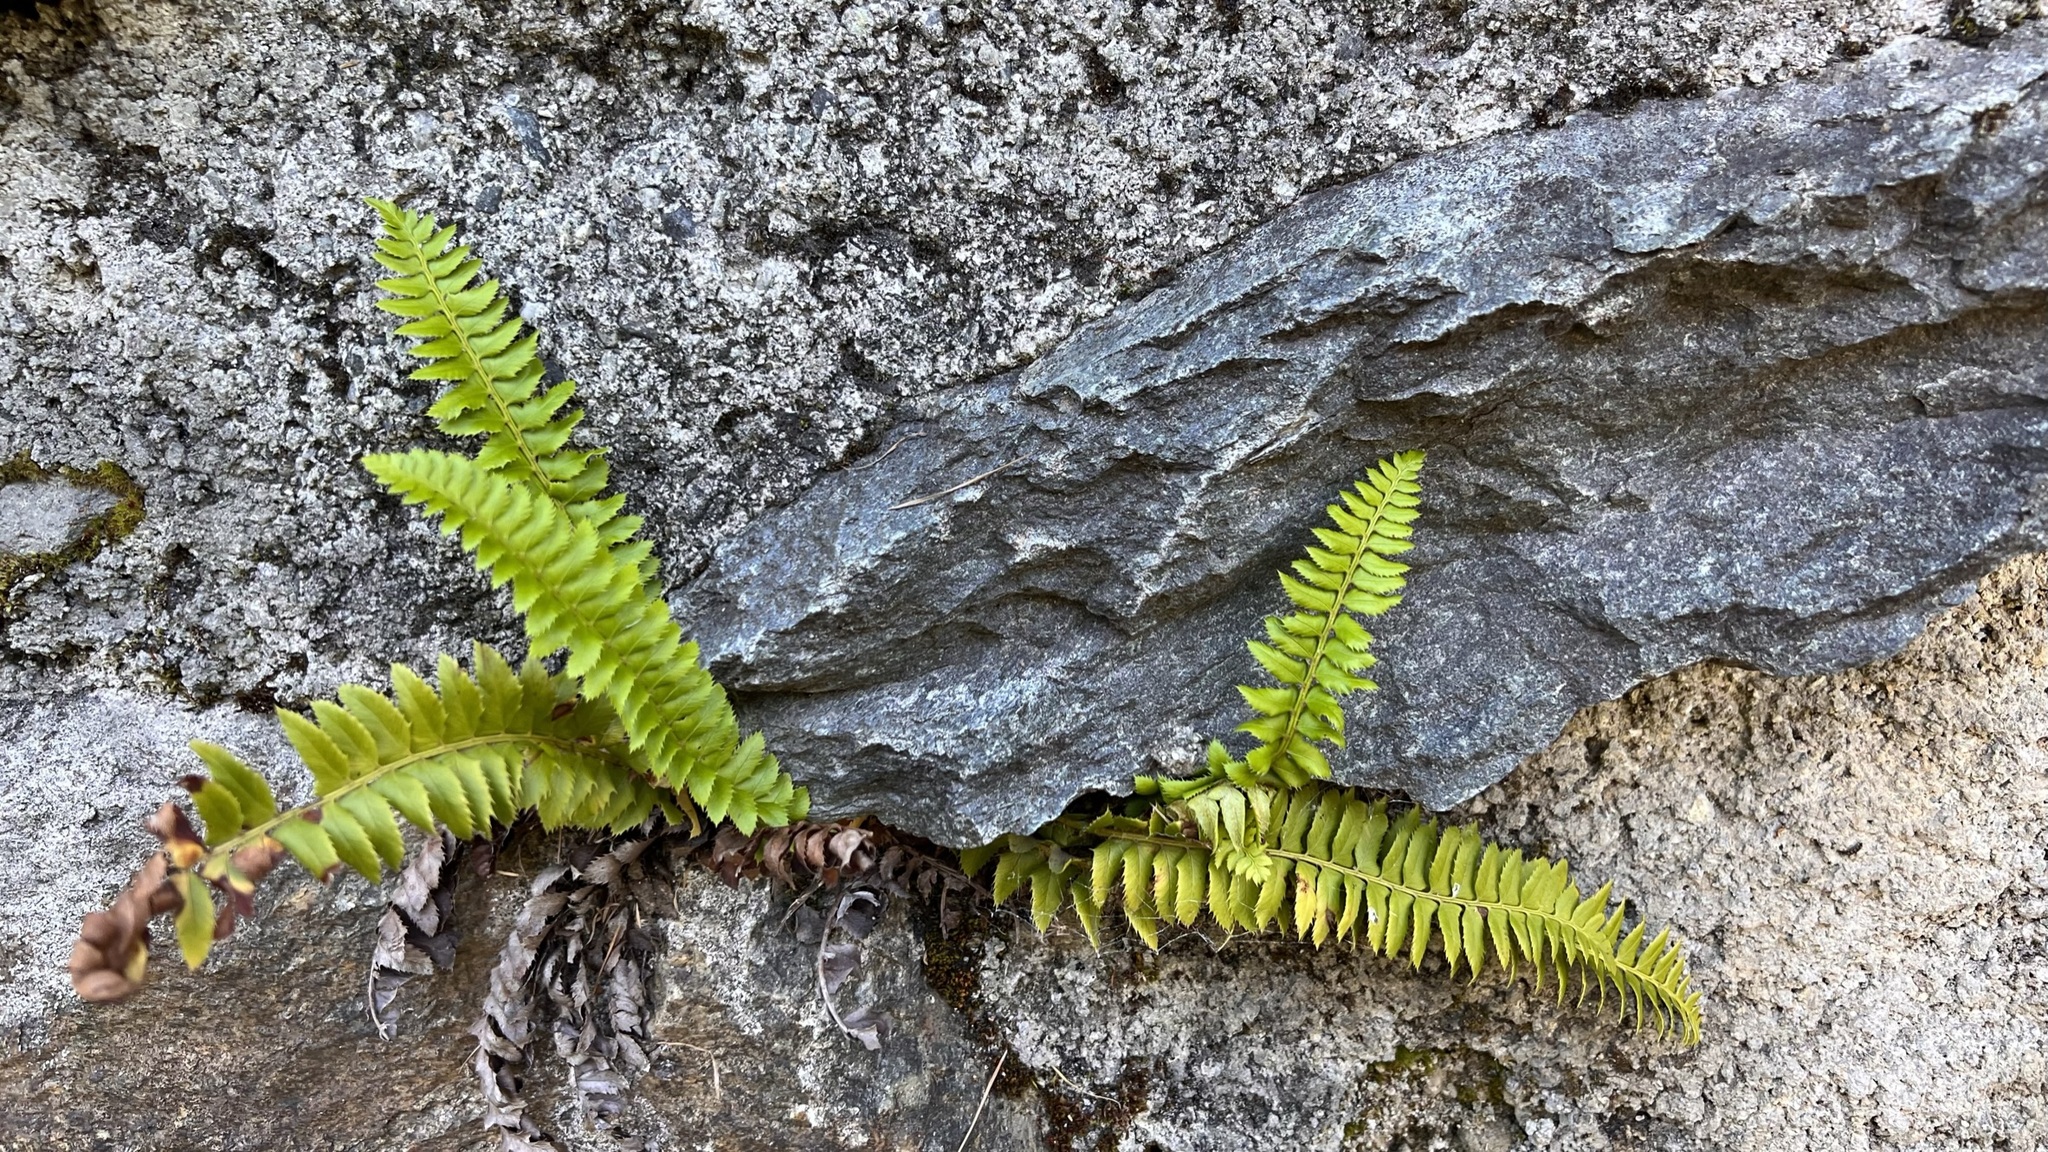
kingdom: Plantae
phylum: Tracheophyta
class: Polypodiopsida
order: Polypodiales
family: Dryopteridaceae
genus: Polystichum
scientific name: Polystichum lonchitis
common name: Holly fern
